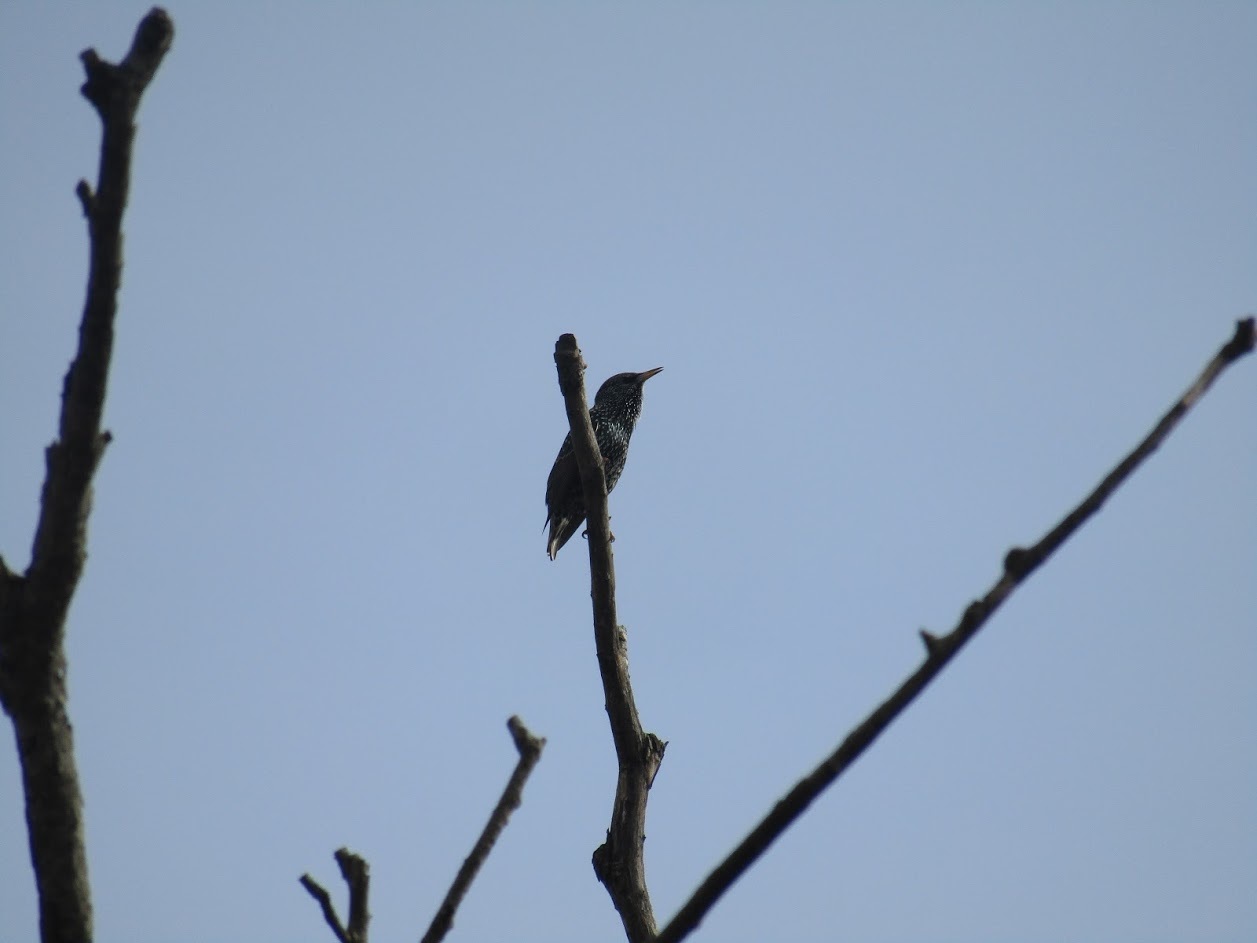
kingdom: Animalia
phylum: Chordata
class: Aves
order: Passeriformes
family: Sturnidae
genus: Sturnus
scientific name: Sturnus vulgaris
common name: Common starling
